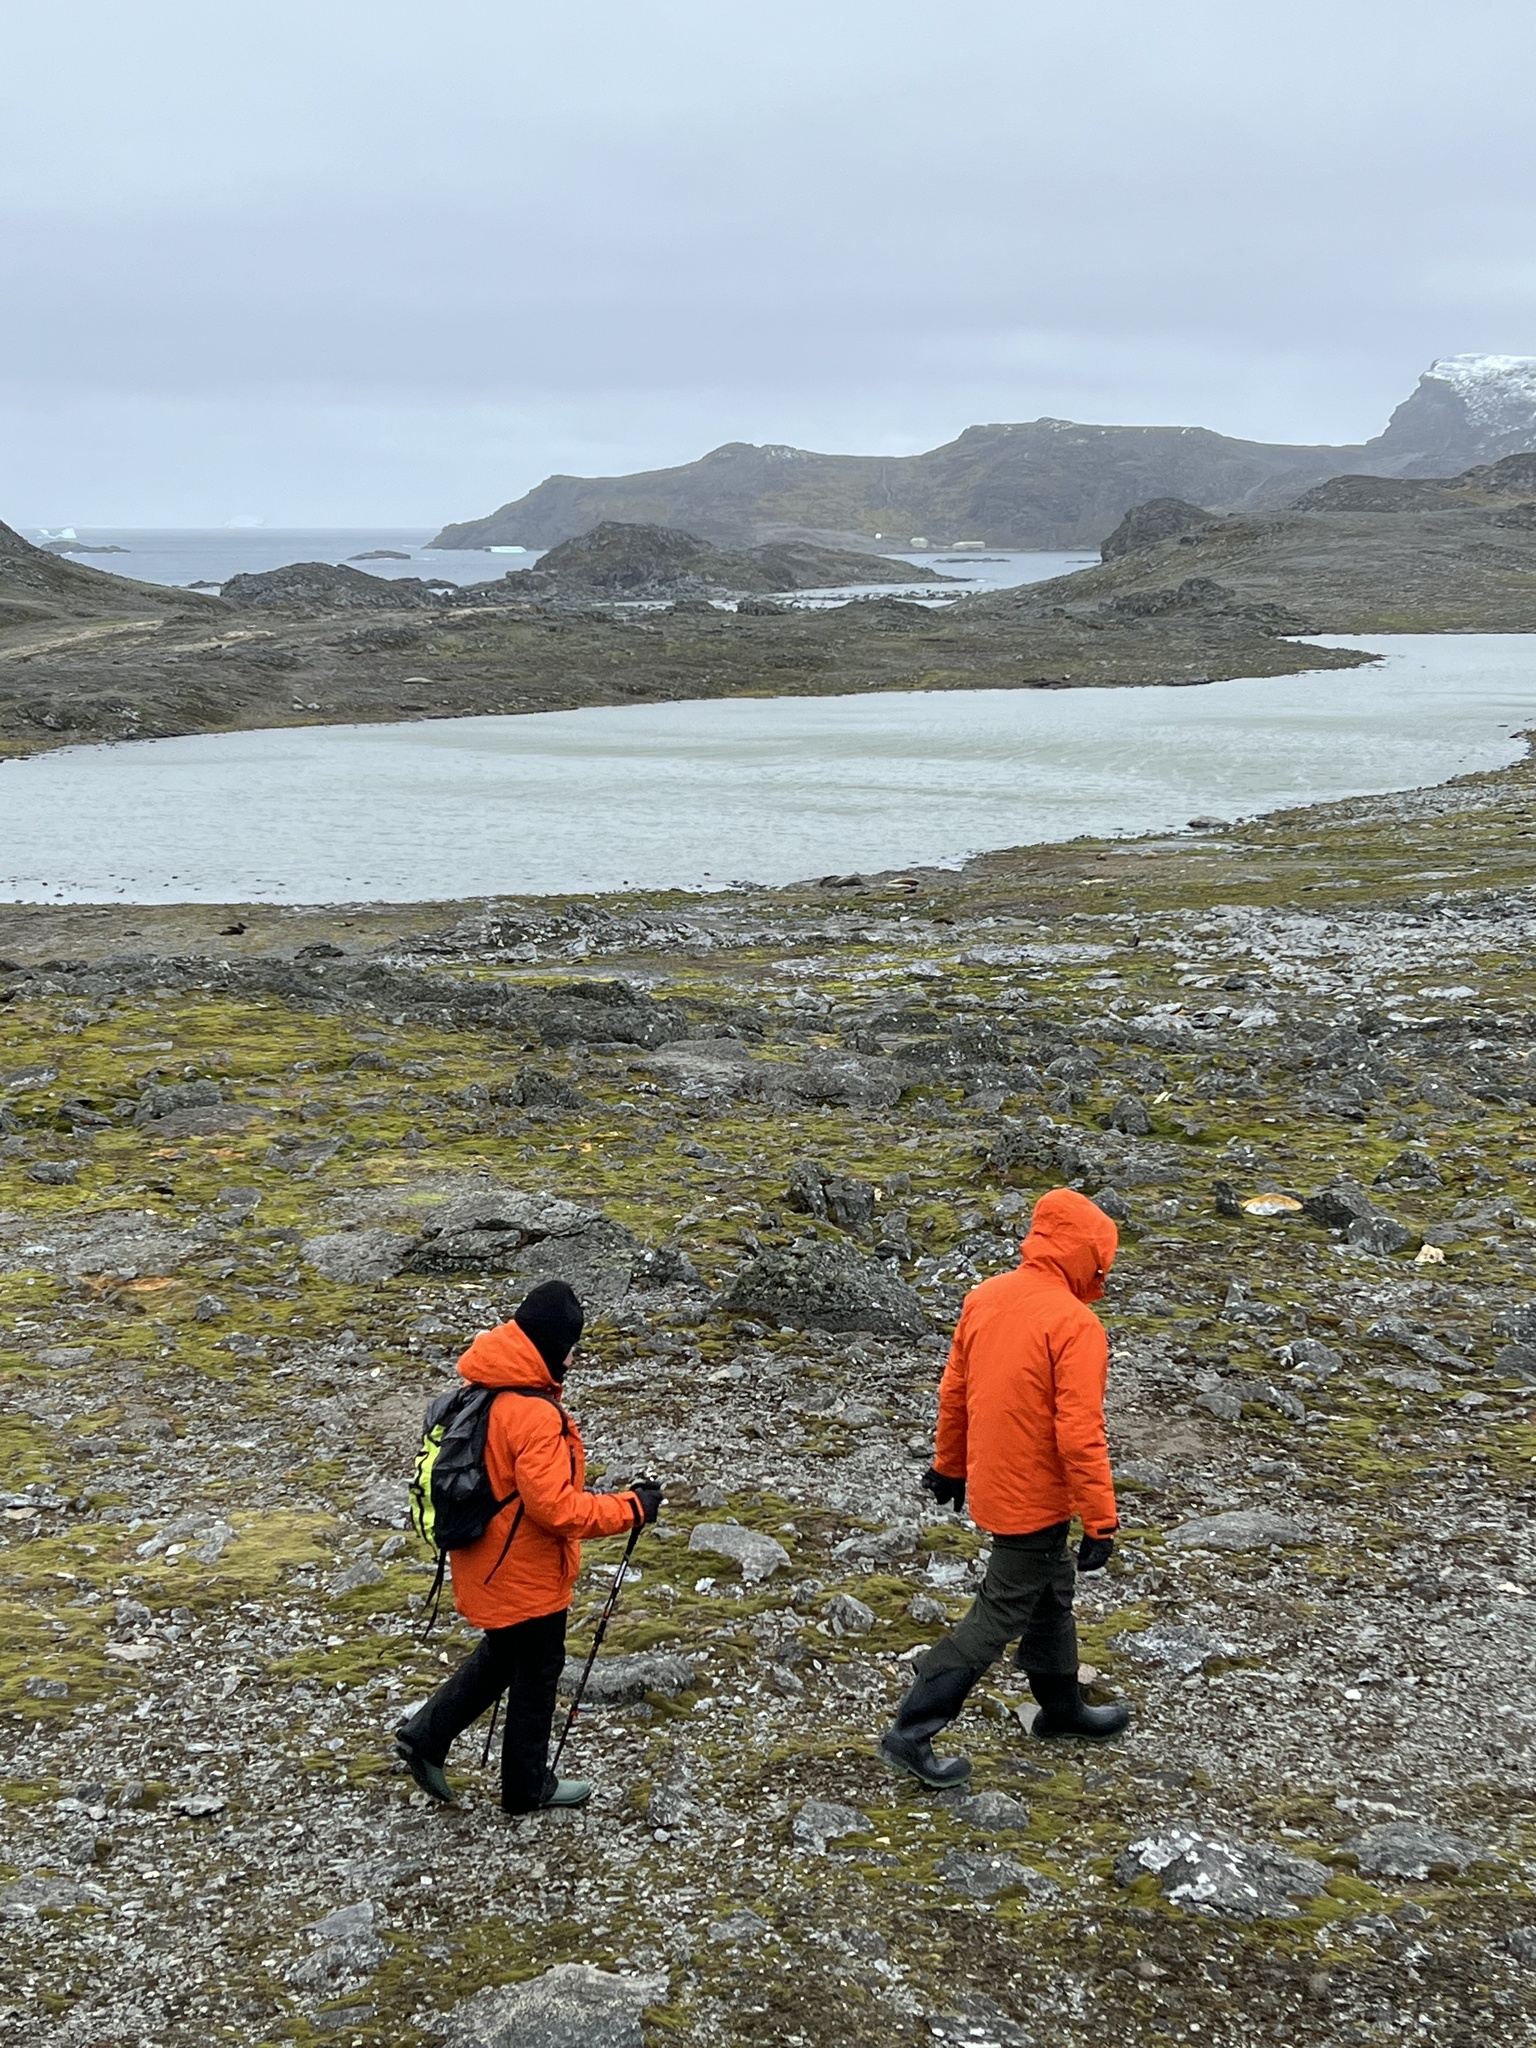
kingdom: Animalia
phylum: Chordata
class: Aves
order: Sphenisciformes
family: Spheniscidae
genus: Pygoscelis
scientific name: Pygoscelis adeliae
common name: Adelie penguin
